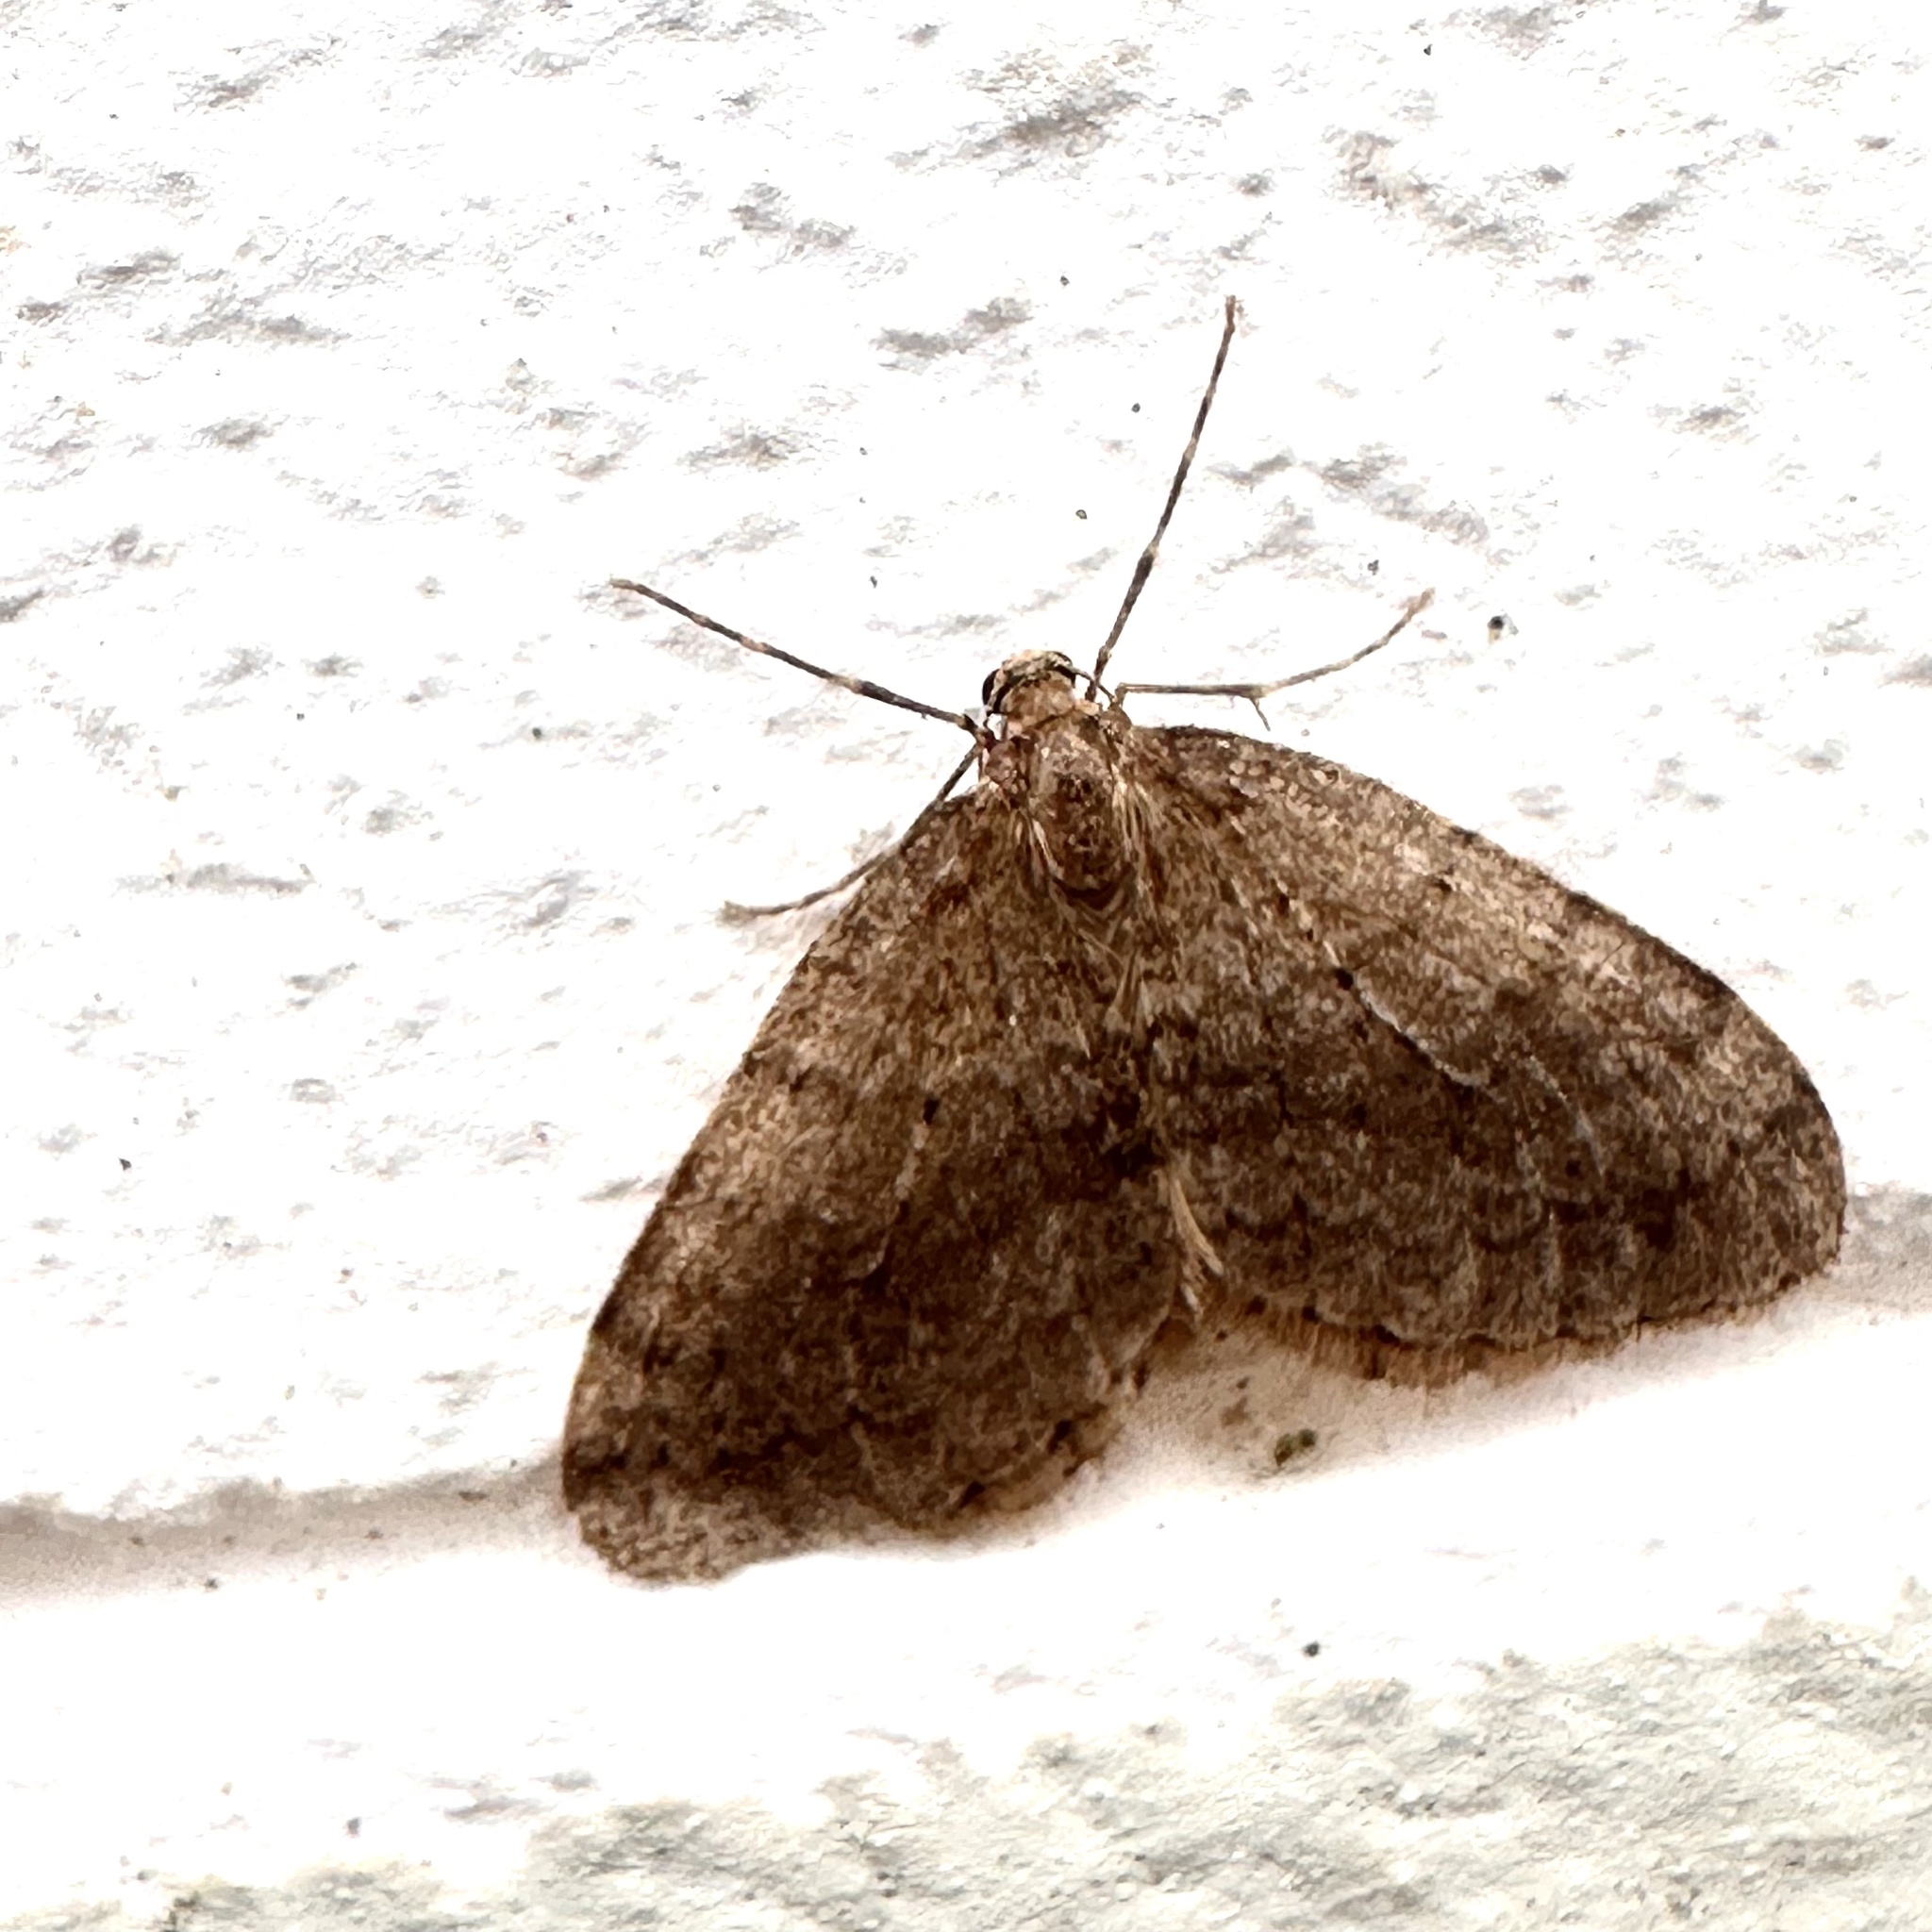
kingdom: Animalia
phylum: Arthropoda
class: Insecta
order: Lepidoptera
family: Geometridae
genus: Operophtera
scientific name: Operophtera brumata
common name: Winter moth
